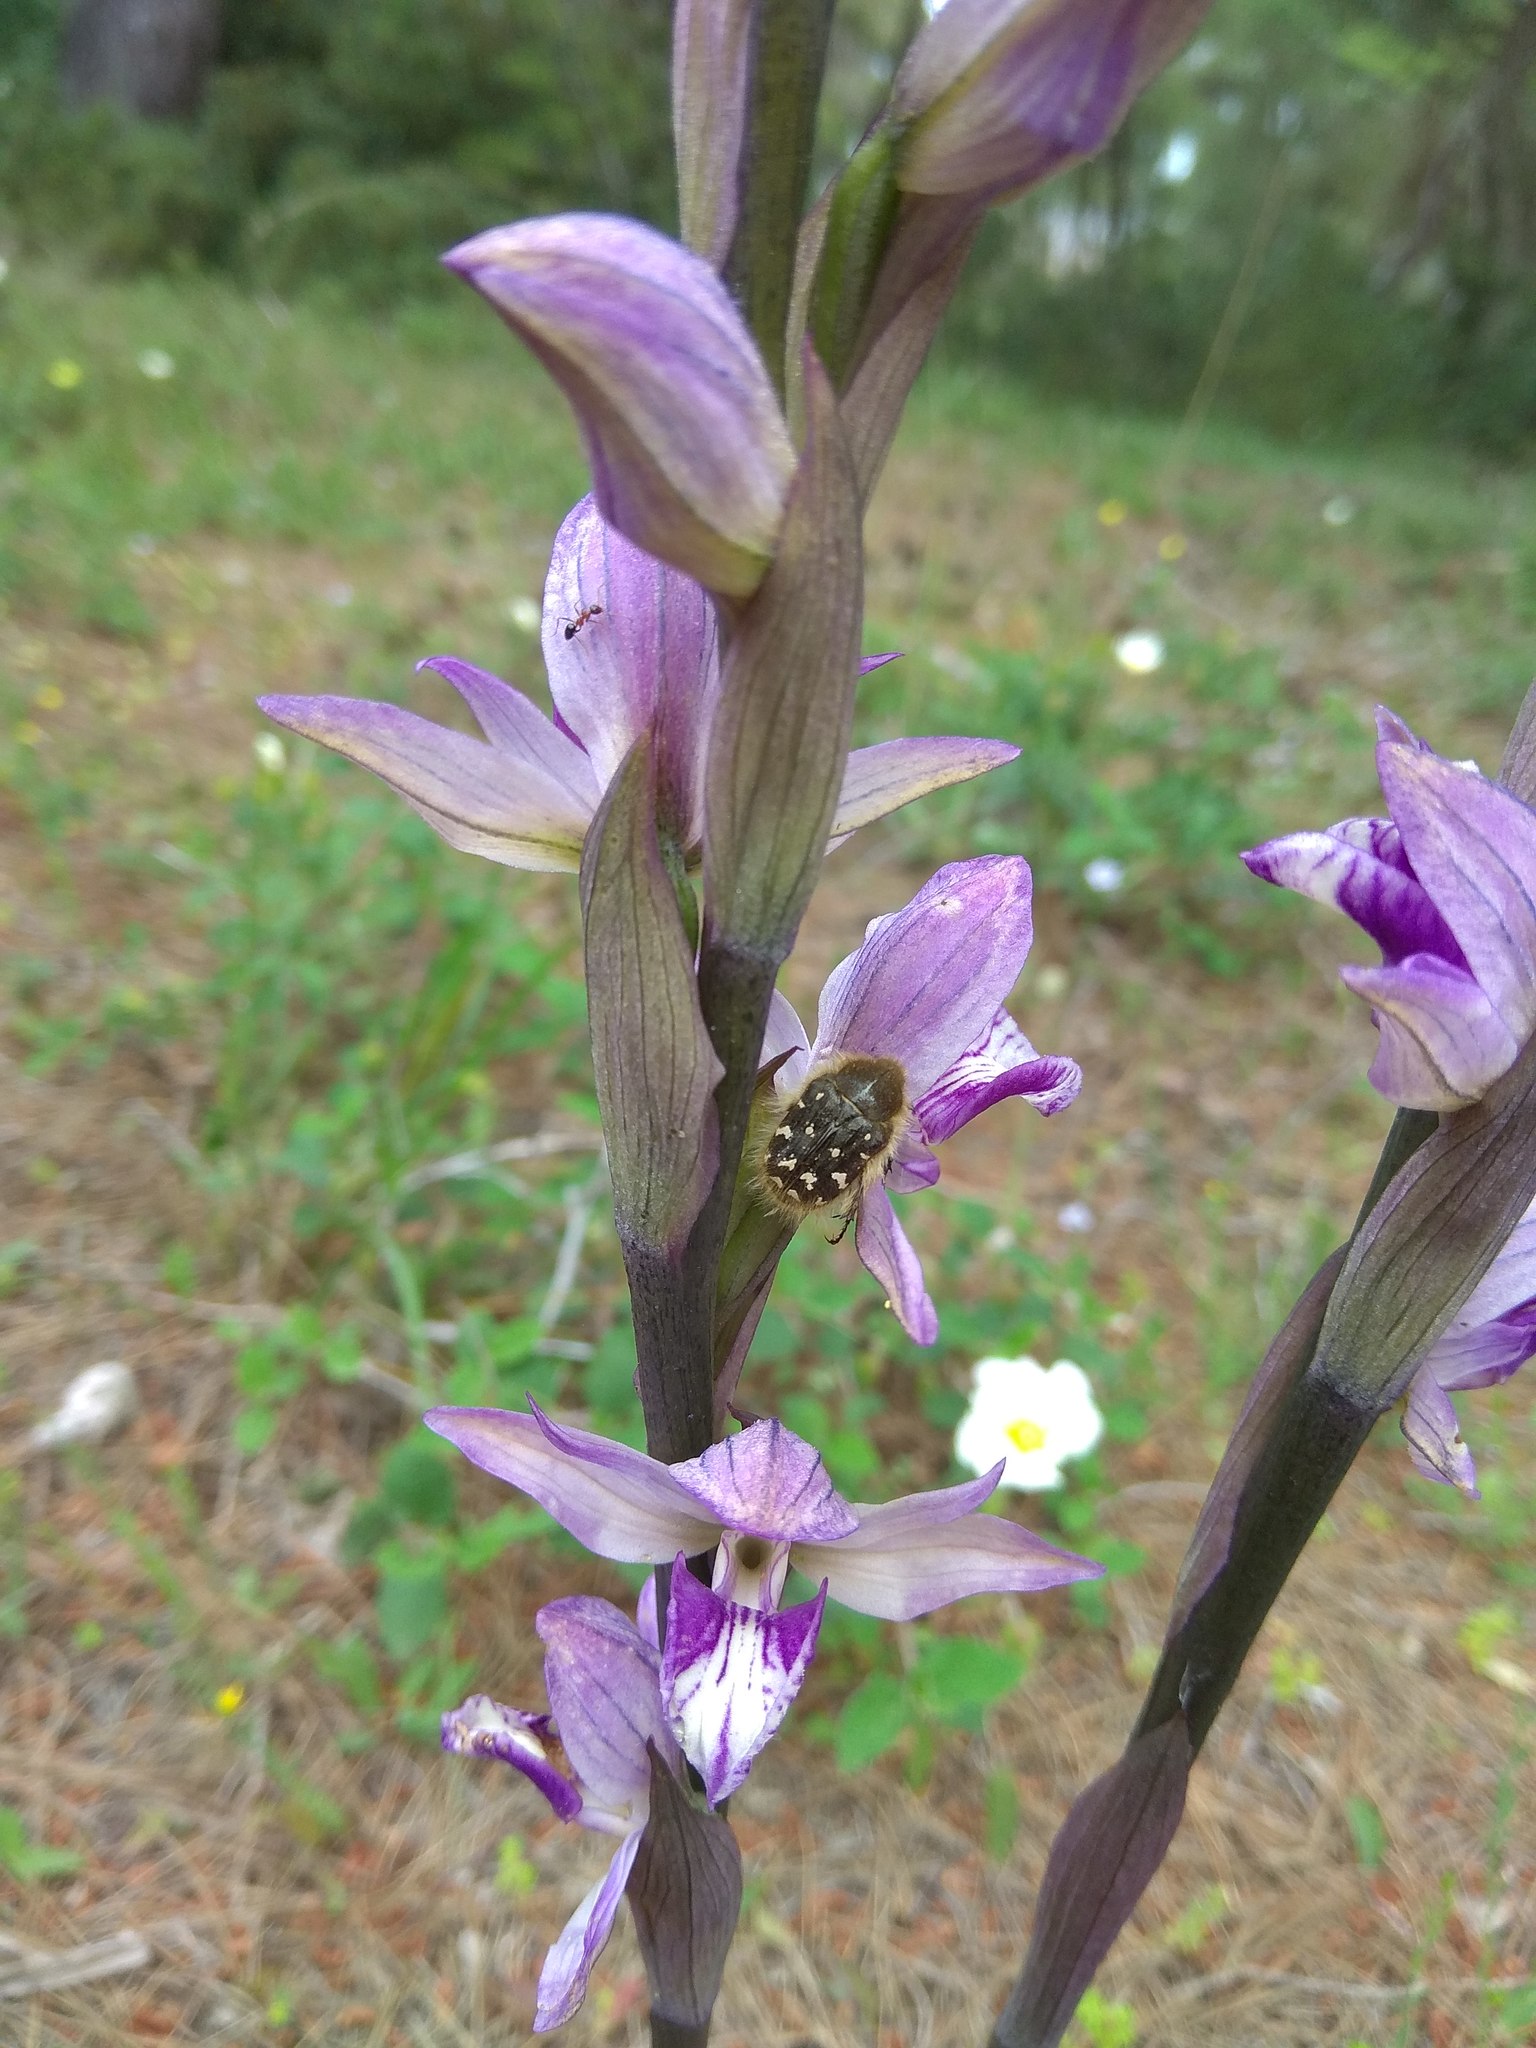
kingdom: Plantae
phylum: Tracheophyta
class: Liliopsida
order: Asparagales
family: Orchidaceae
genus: Limodorum
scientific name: Limodorum abortivum
